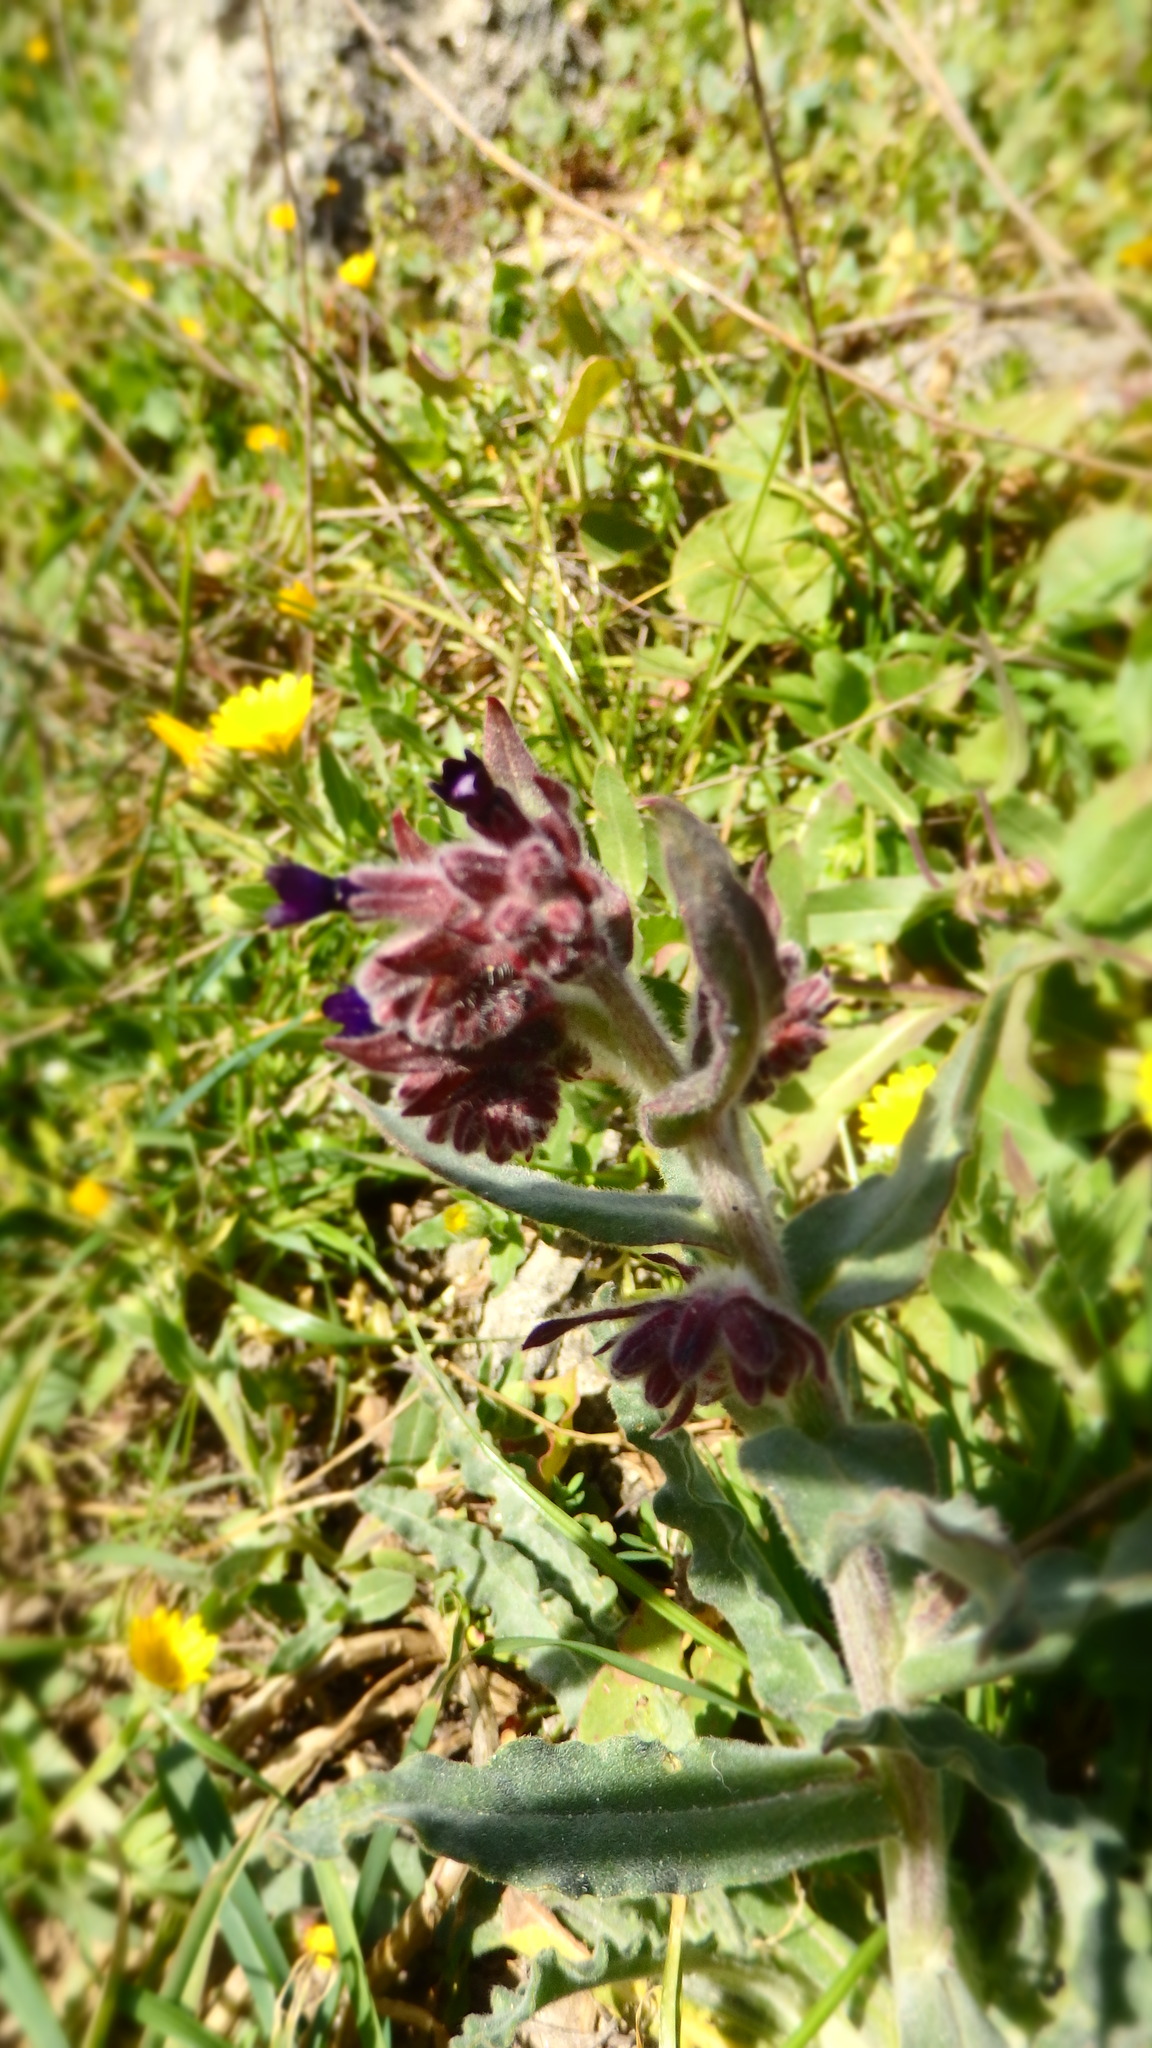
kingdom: Plantae
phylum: Tracheophyta
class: Magnoliopsida
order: Boraginales
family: Boraginaceae
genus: Anchusa
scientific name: Anchusa undulata
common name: Undulate alkanet
